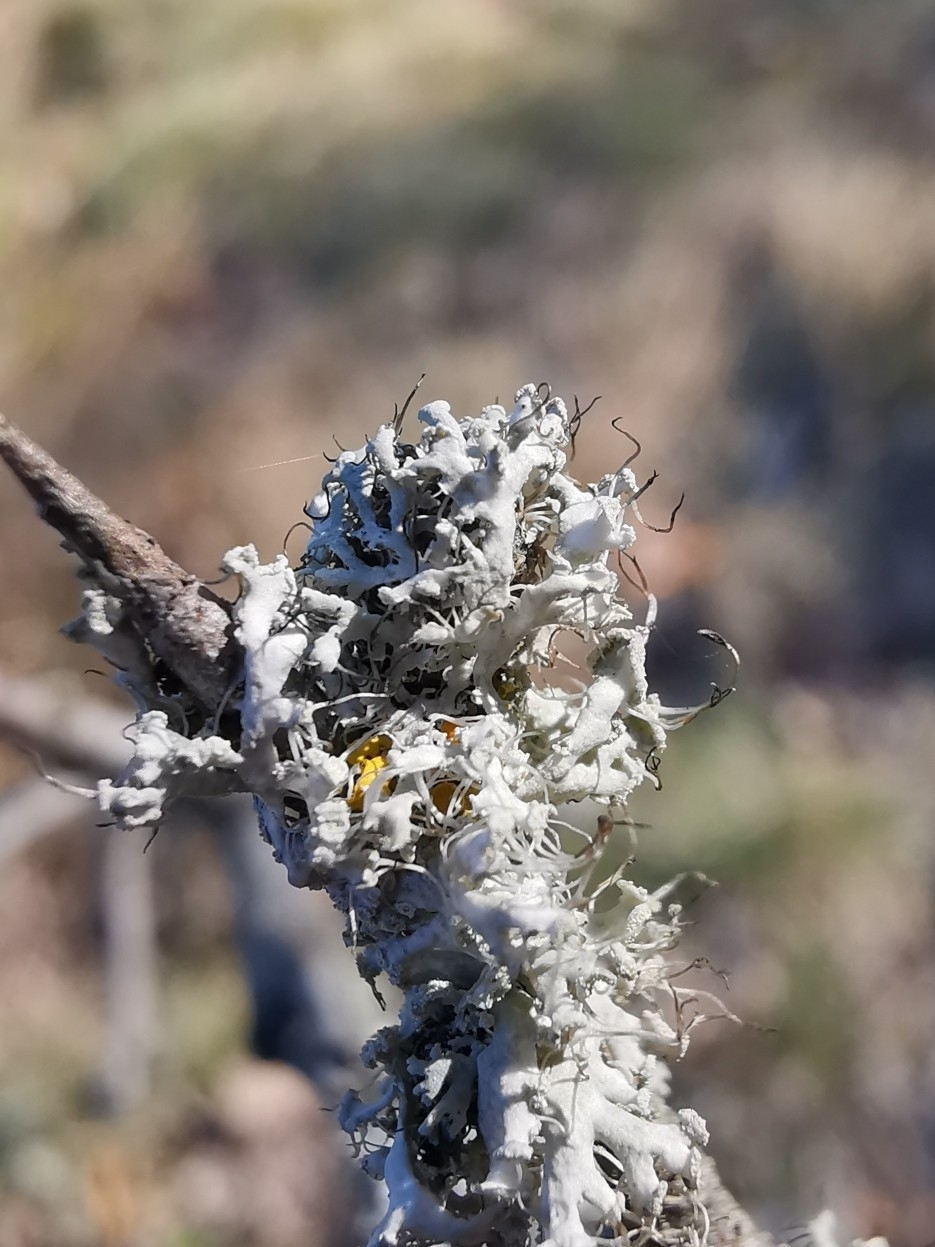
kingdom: Fungi
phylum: Ascomycota
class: Lecanoromycetes
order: Caliciales
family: Physciaceae
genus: Physcia
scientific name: Physcia tenella
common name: Fringed rosette lichen
